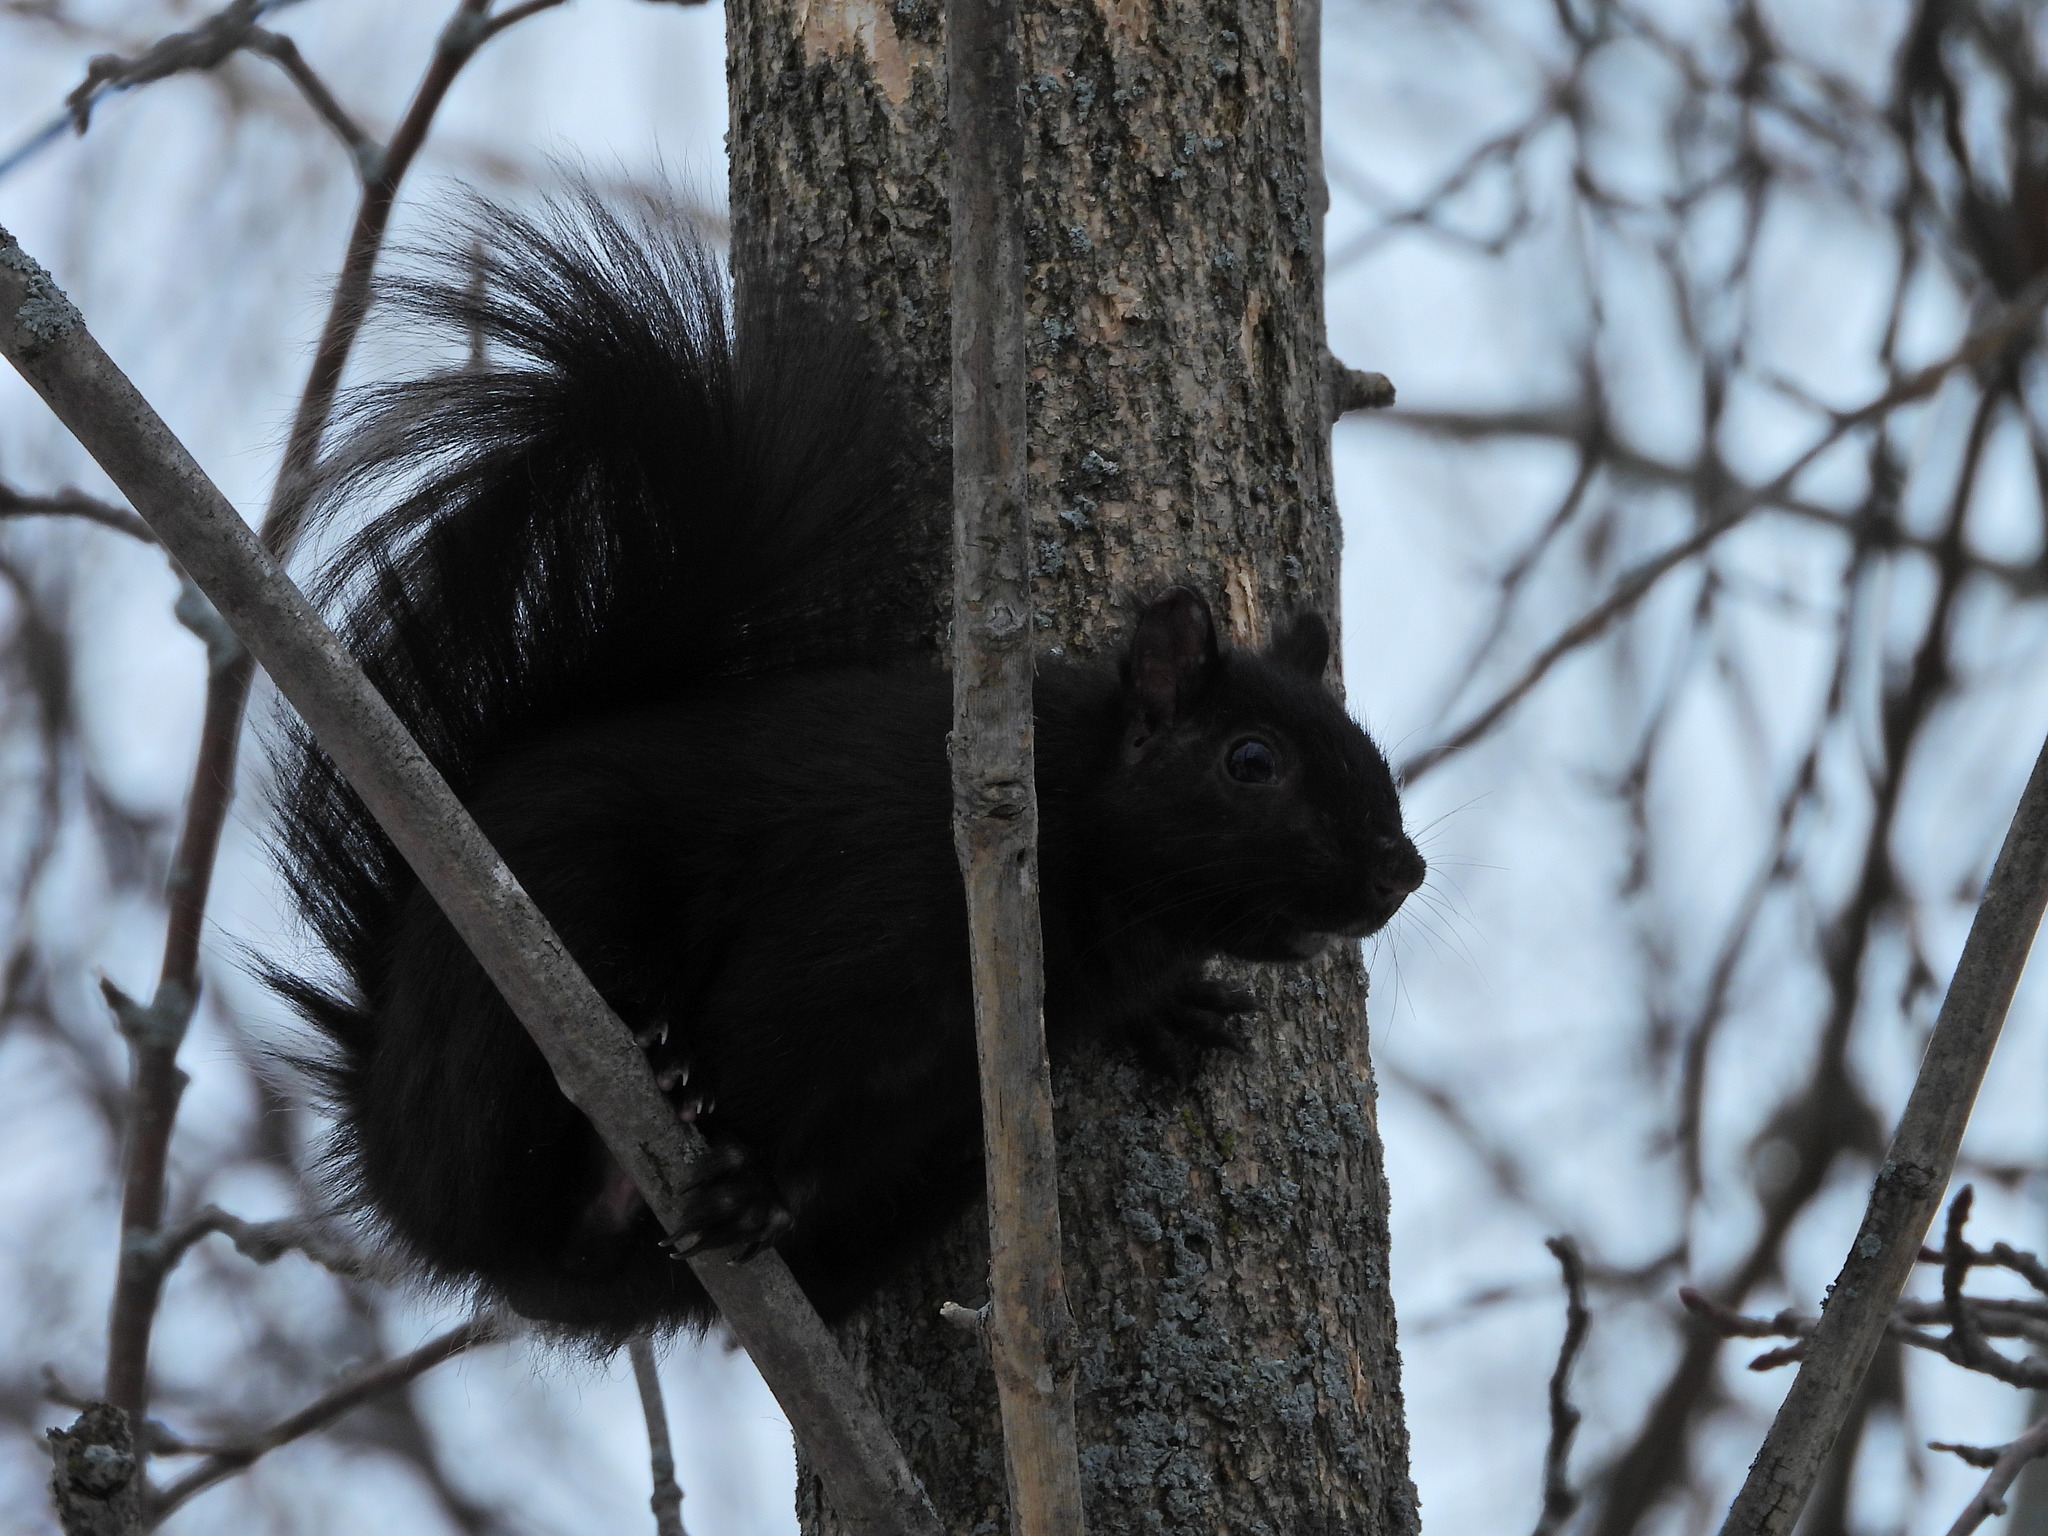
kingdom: Animalia
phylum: Chordata
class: Mammalia
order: Rodentia
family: Sciuridae
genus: Sciurus
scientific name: Sciurus carolinensis
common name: Eastern gray squirrel
